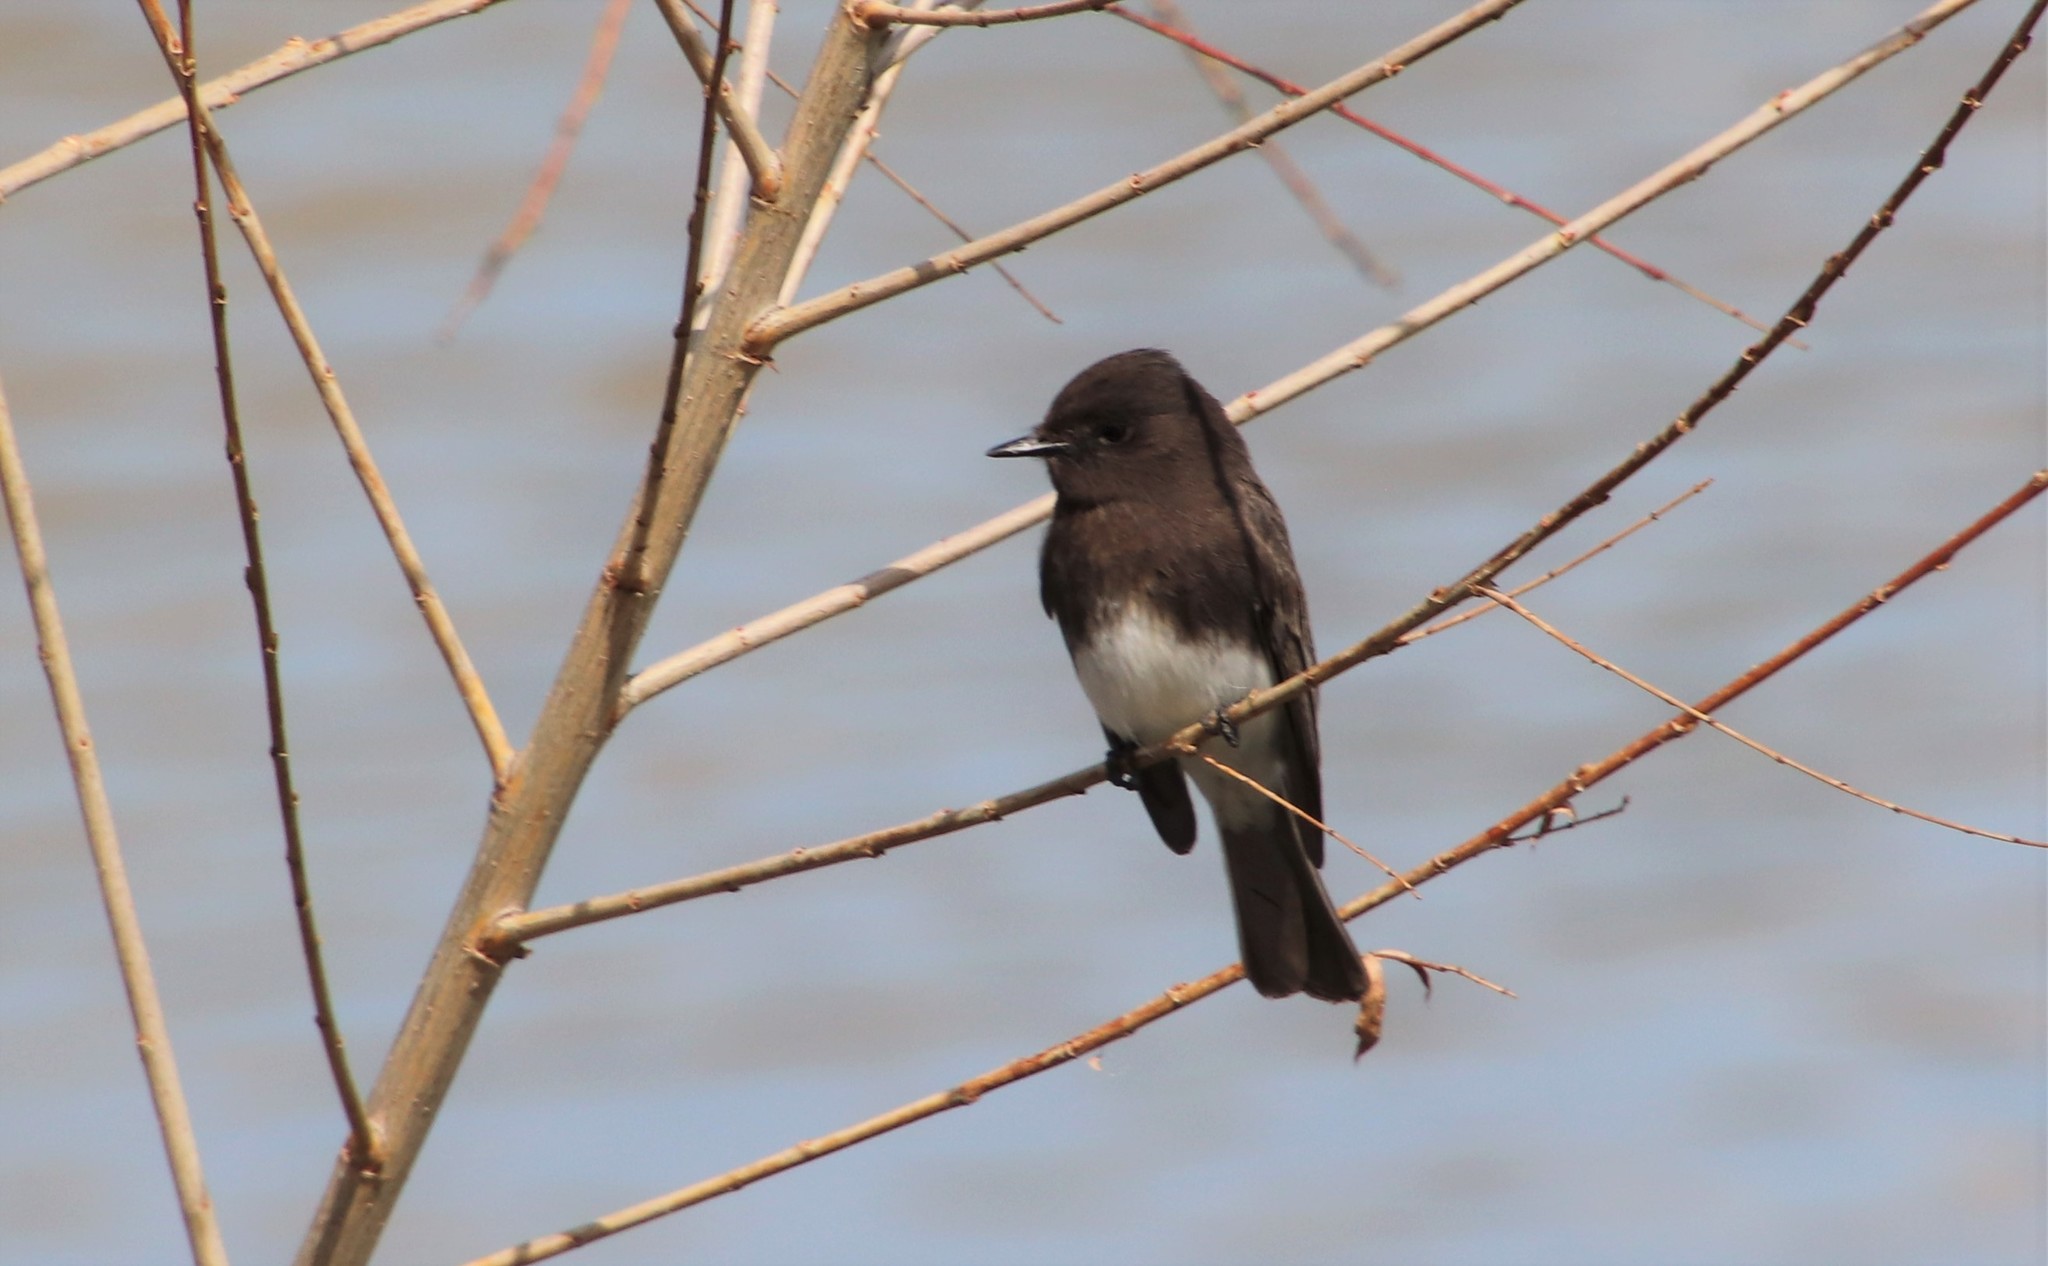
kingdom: Animalia
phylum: Chordata
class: Aves
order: Passeriformes
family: Tyrannidae
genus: Sayornis
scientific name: Sayornis nigricans
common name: Black phoebe
